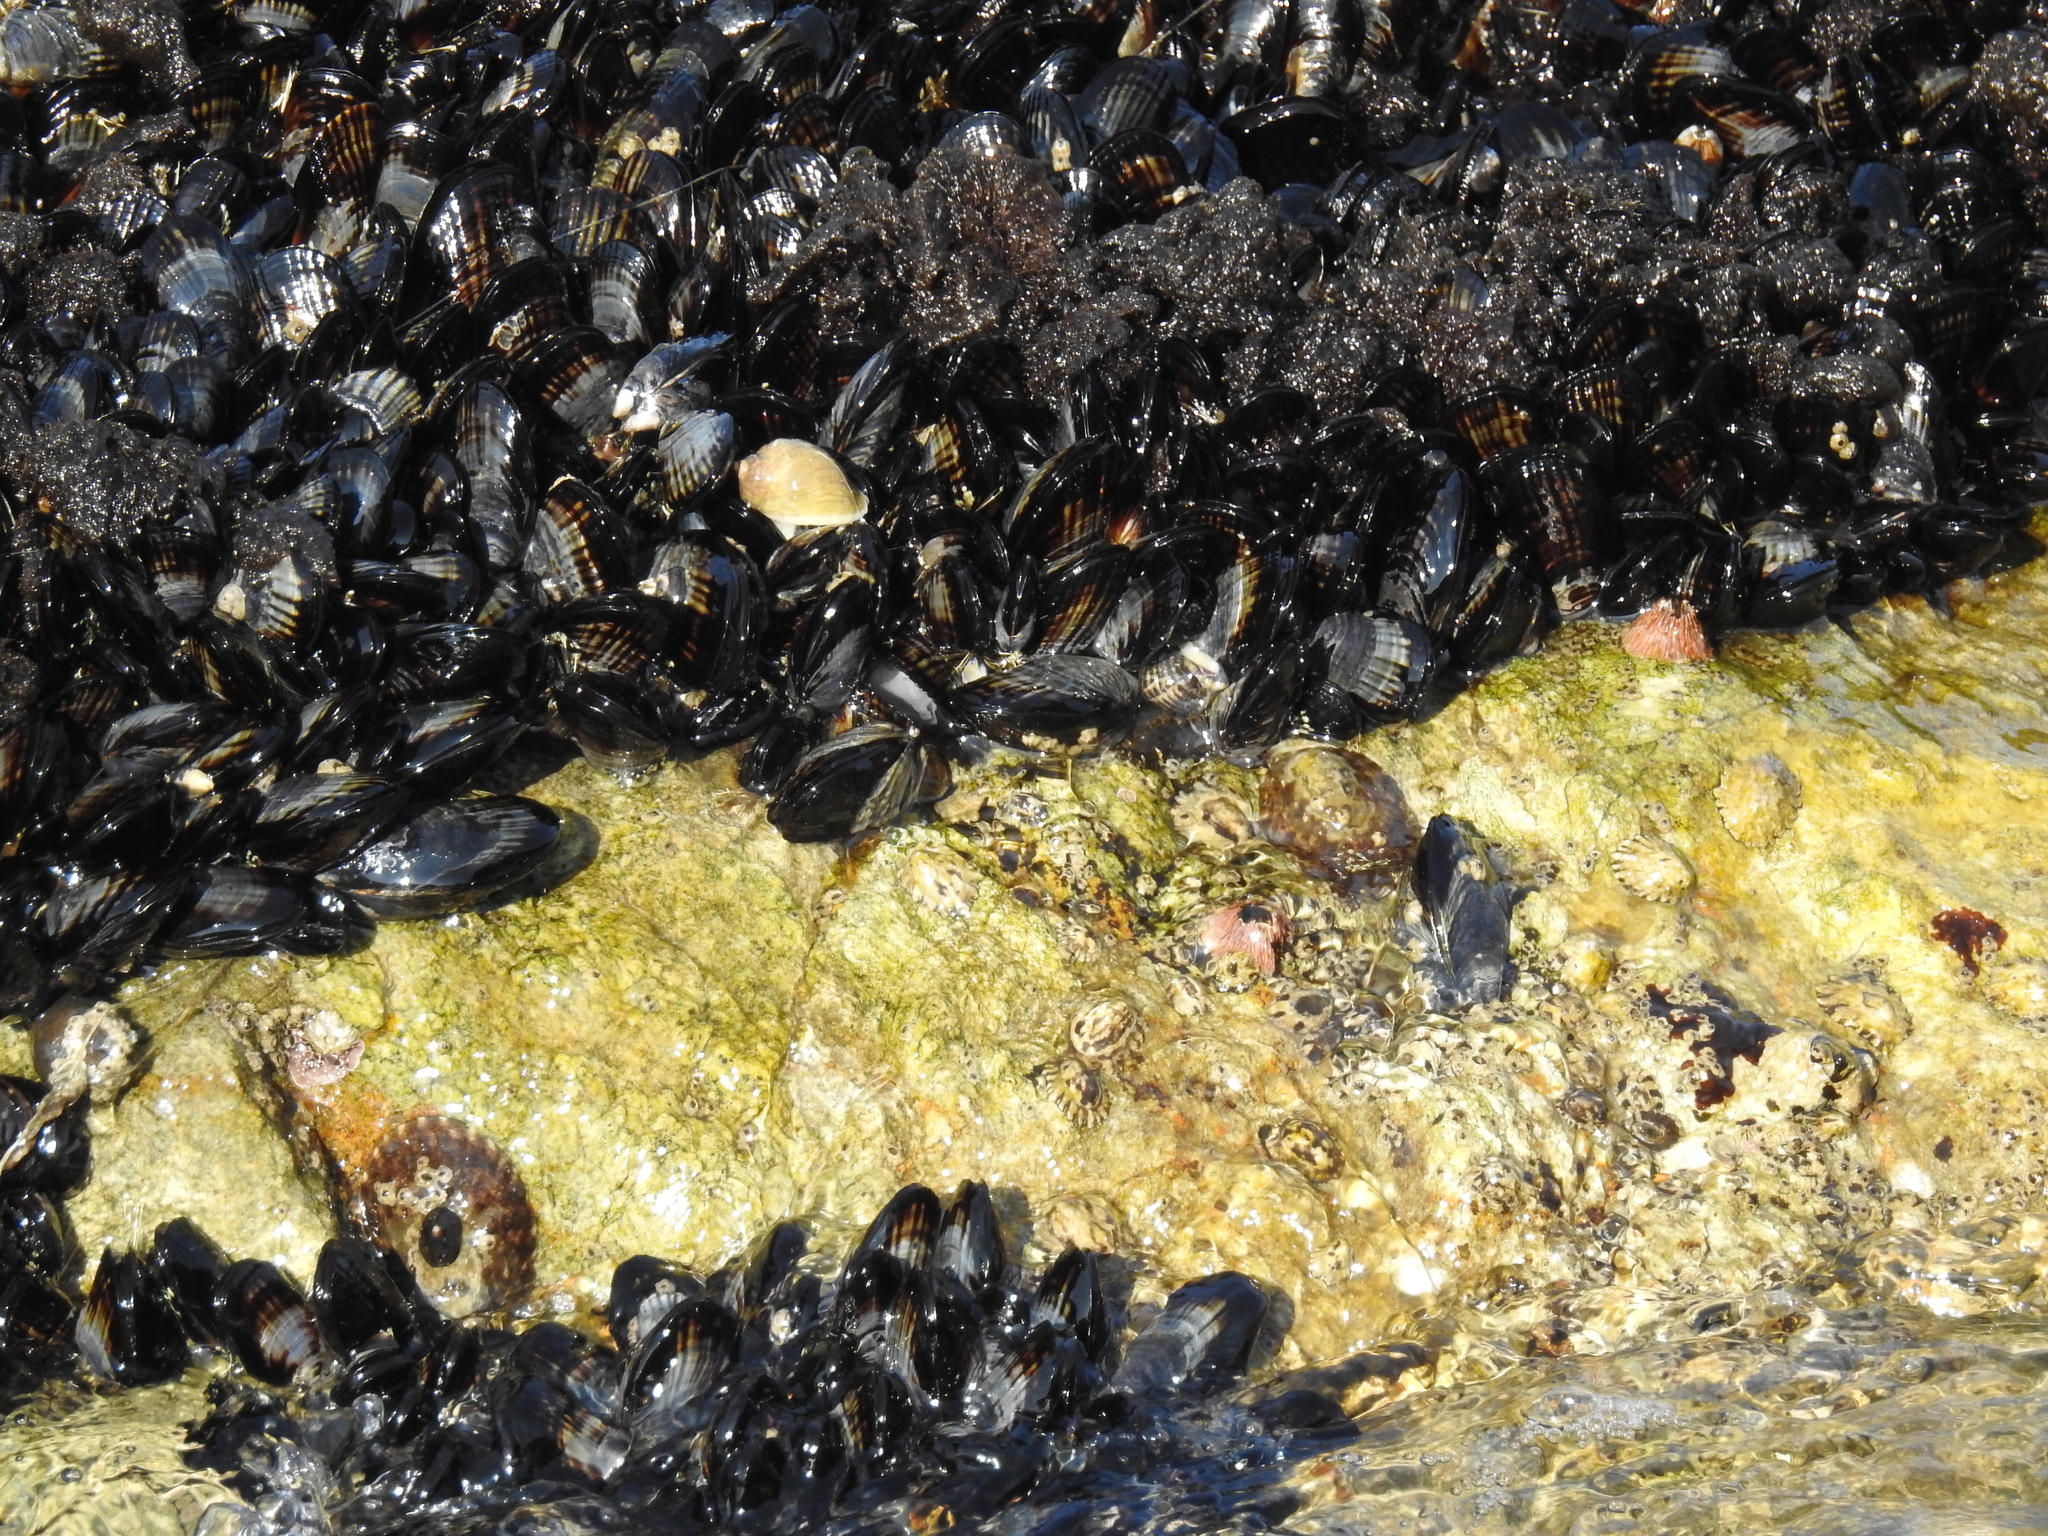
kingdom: Animalia
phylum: Mollusca
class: Bivalvia
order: Mytilida
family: Mytilidae
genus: Mytilus
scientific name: Mytilus californianus
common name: California mussel
